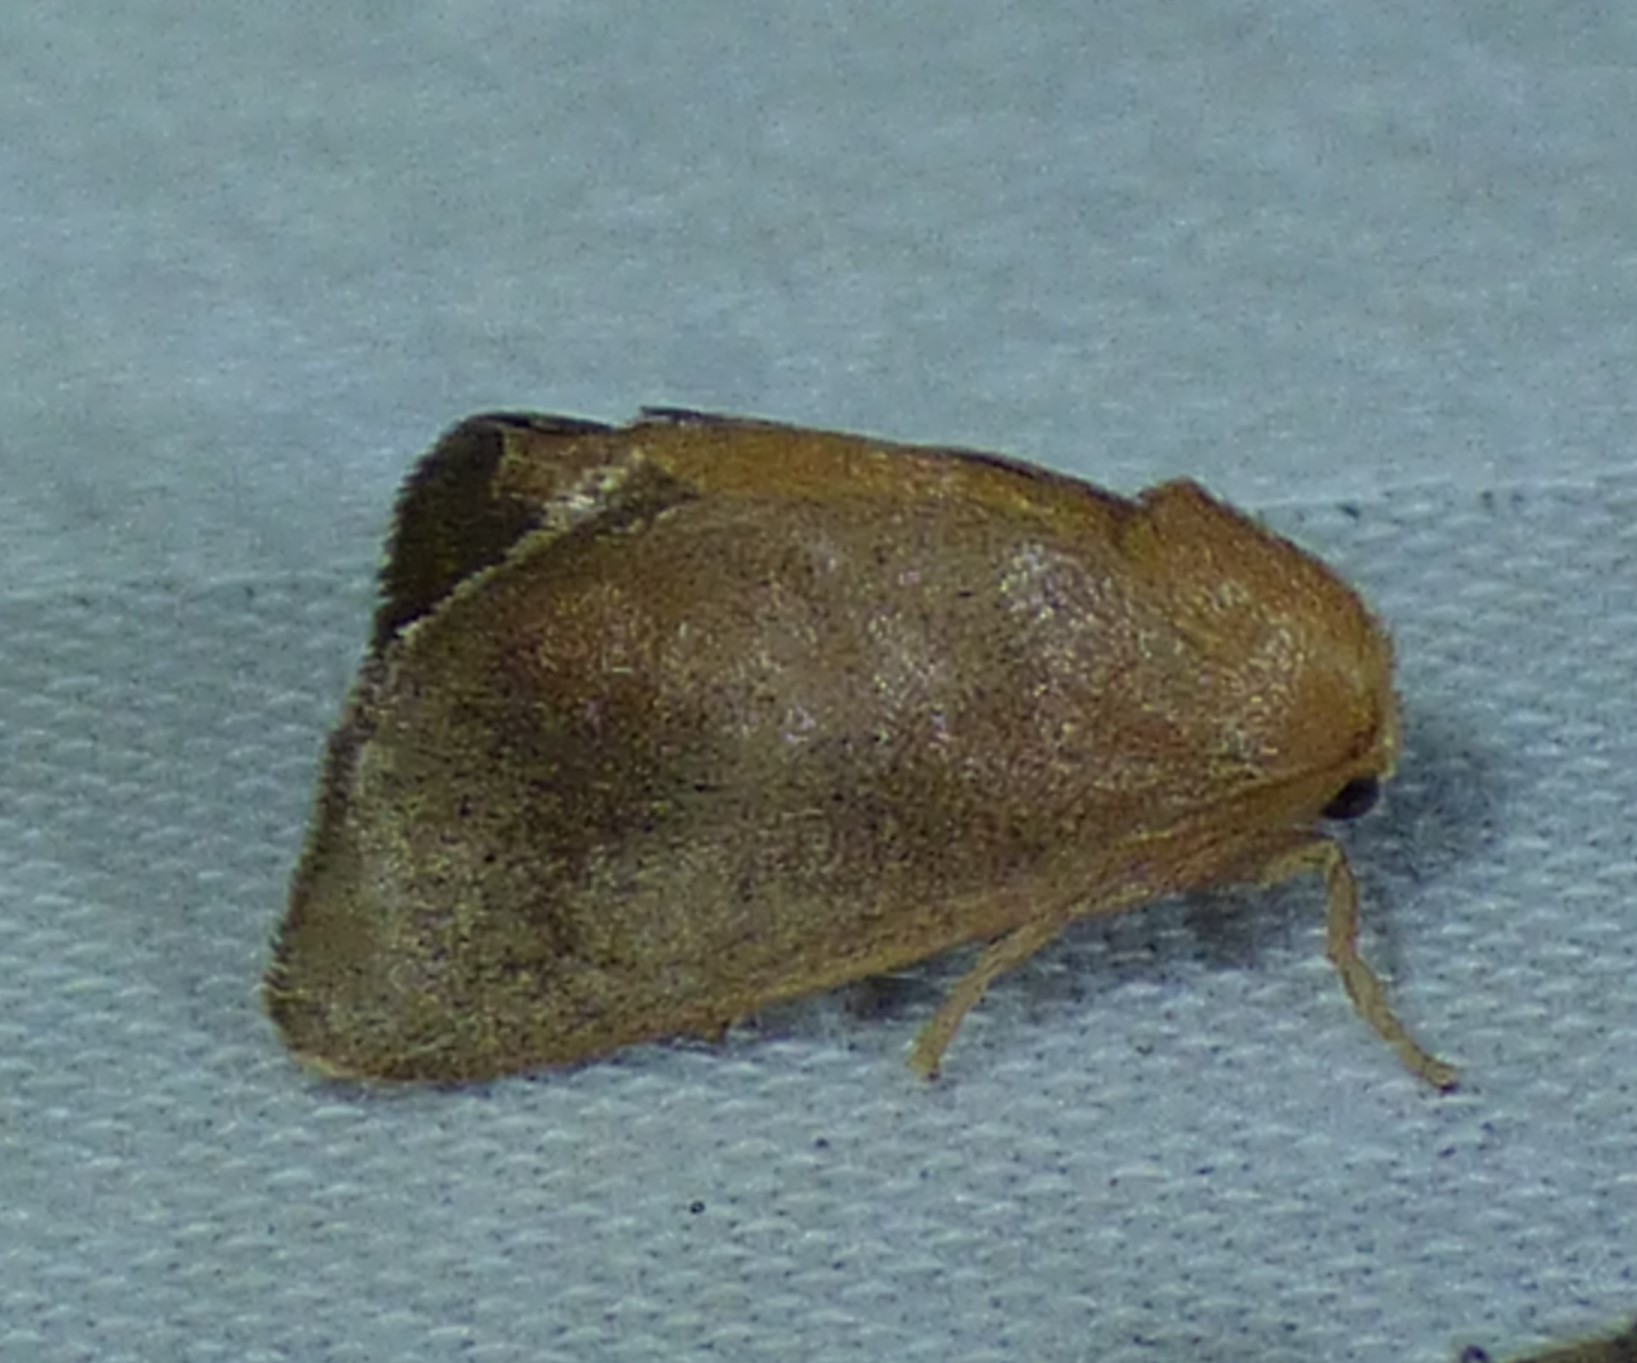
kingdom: Animalia
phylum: Arthropoda
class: Insecta
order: Lepidoptera
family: Limacodidae
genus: Isa
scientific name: Isa textula
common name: Crowned slug moth
